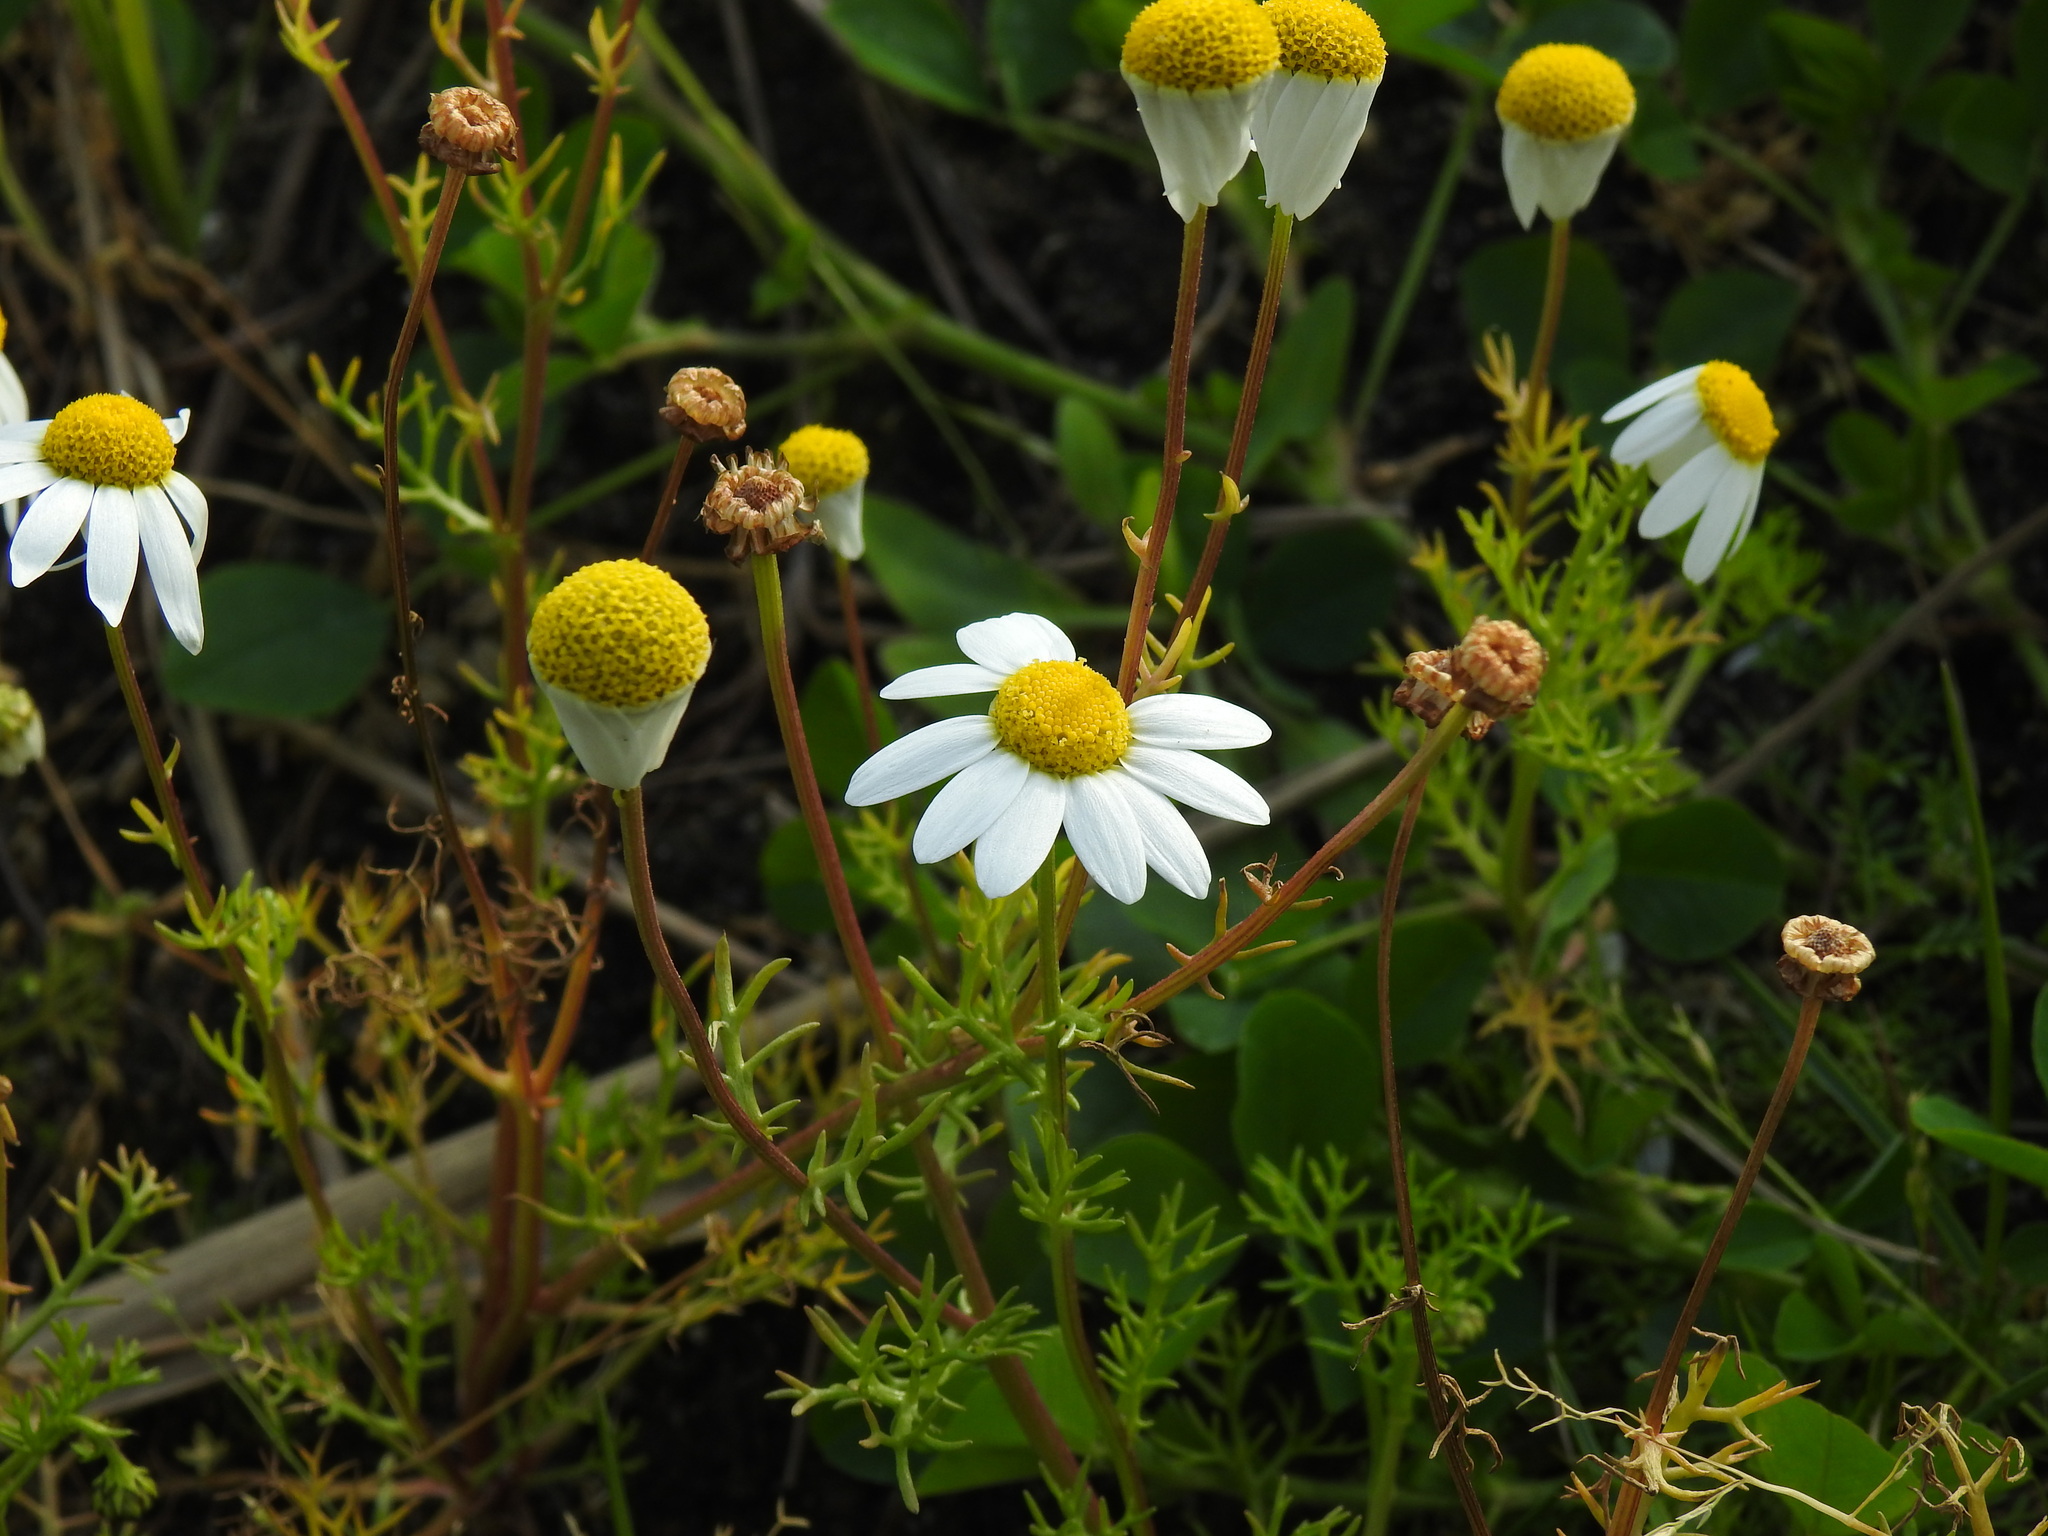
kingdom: Plantae
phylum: Tracheophyta
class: Magnoliopsida
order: Asterales
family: Asteraceae
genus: Chamaemelum
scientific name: Chamaemelum fuscatum
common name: Chamomile
